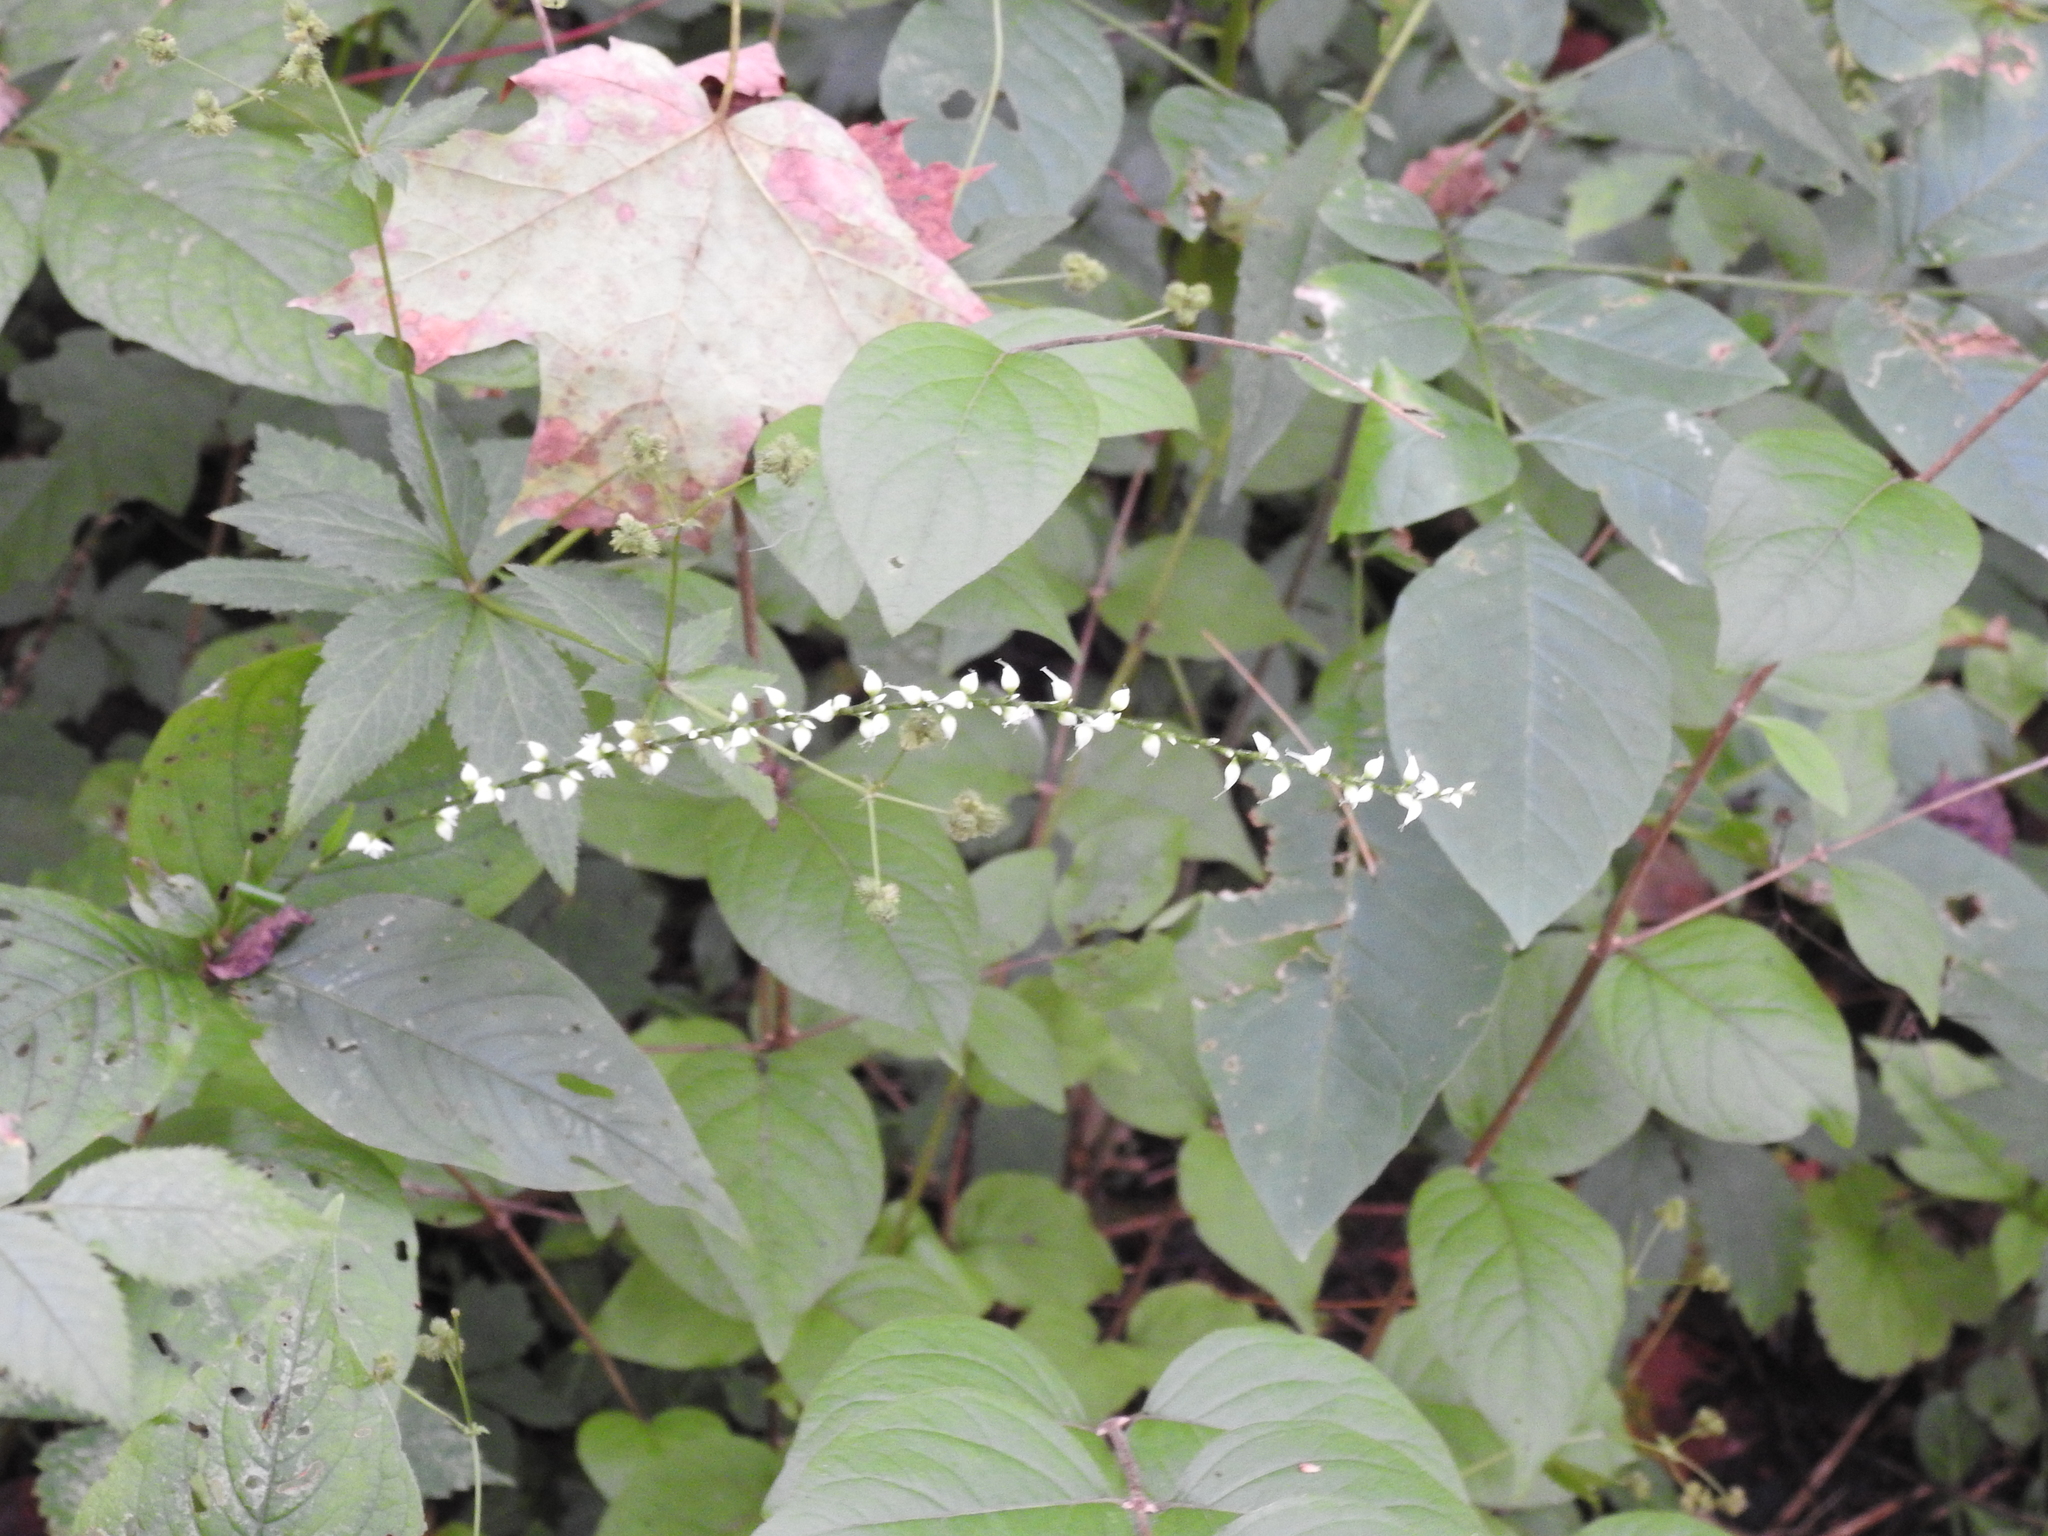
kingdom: Plantae
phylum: Tracheophyta
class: Magnoliopsida
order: Caryophyllales
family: Polygonaceae
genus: Persicaria
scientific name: Persicaria virginiana
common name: Jumpseed
